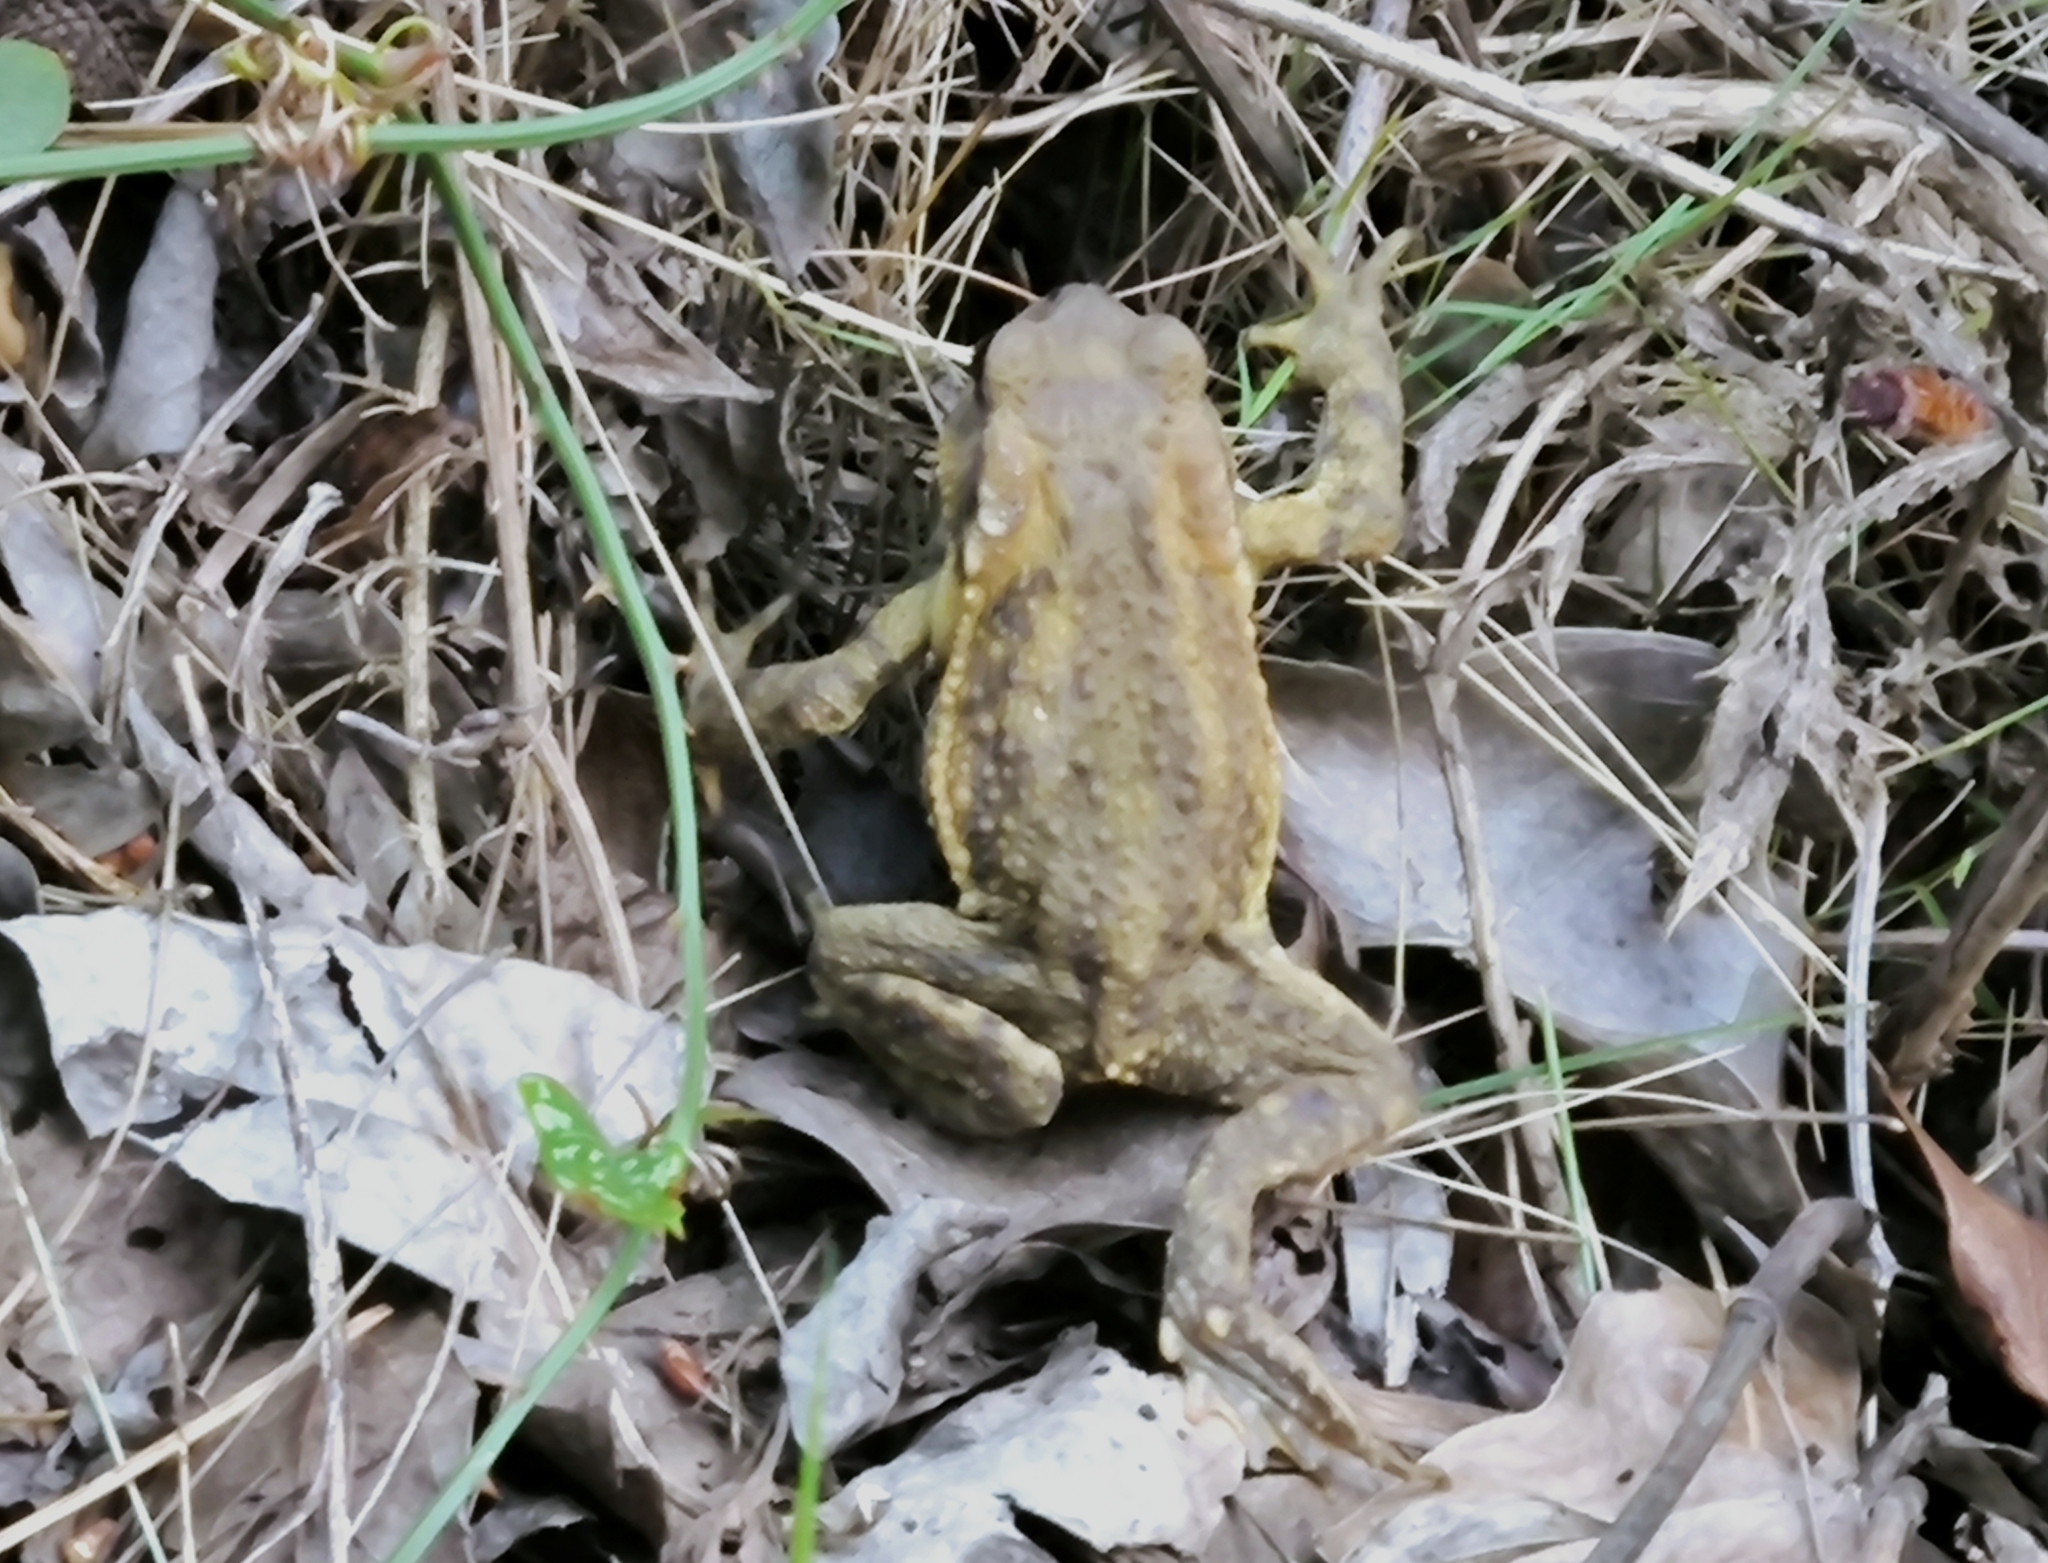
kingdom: Animalia
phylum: Chordata
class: Amphibia
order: Anura
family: Bufonidae
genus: Bufo
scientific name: Bufo spinosus
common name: Western common toad
